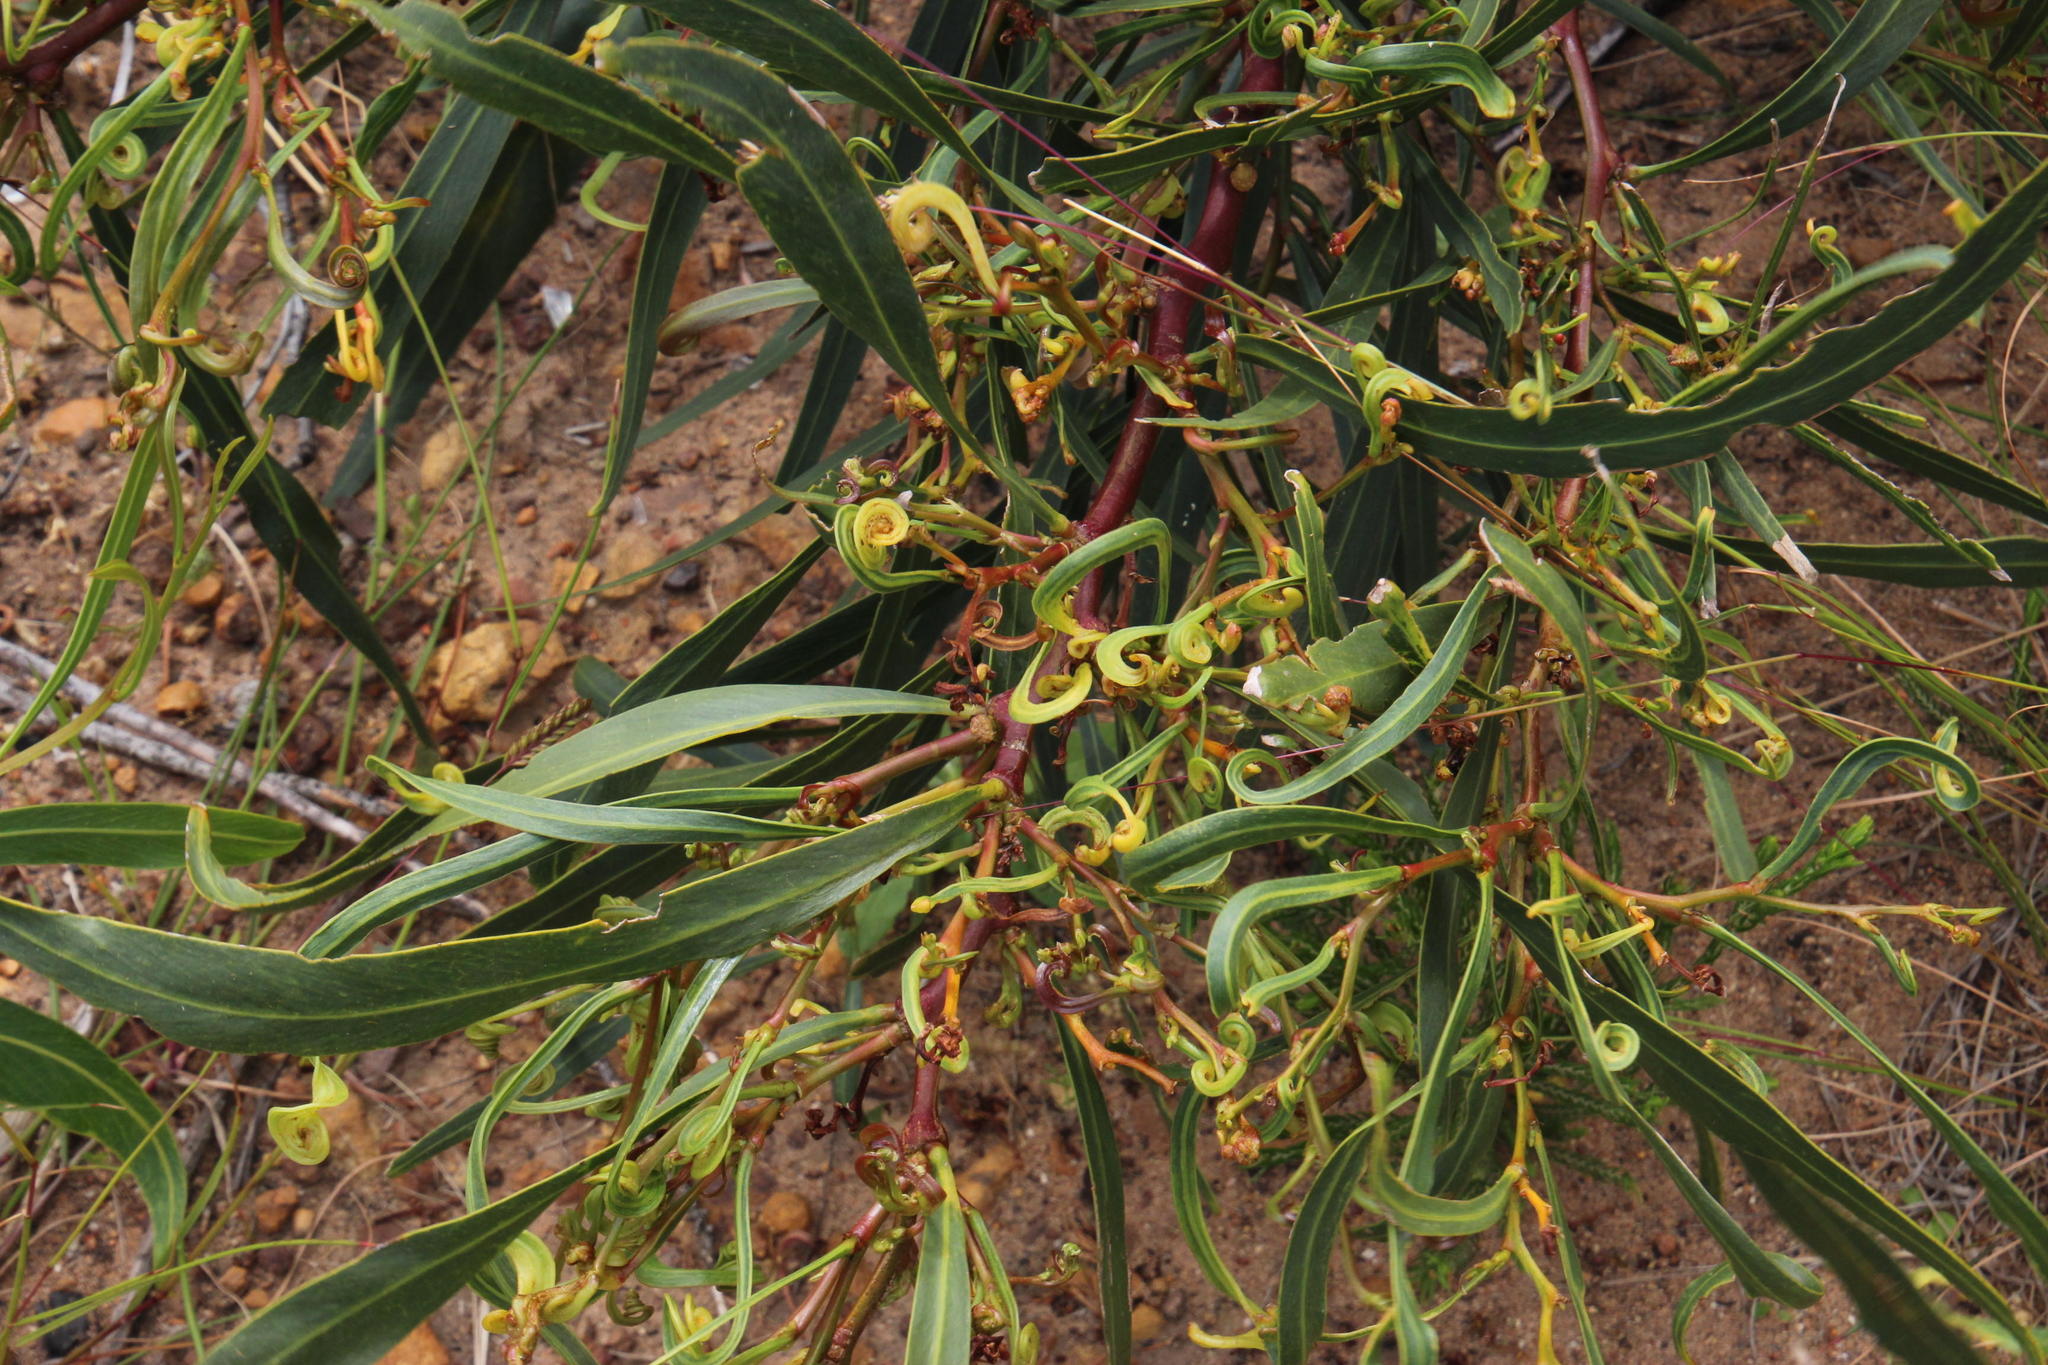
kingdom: Plantae
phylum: Tracheophyta
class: Magnoliopsida
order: Fabales
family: Fabaceae
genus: Acacia
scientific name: Acacia saligna
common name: Orange wattle
